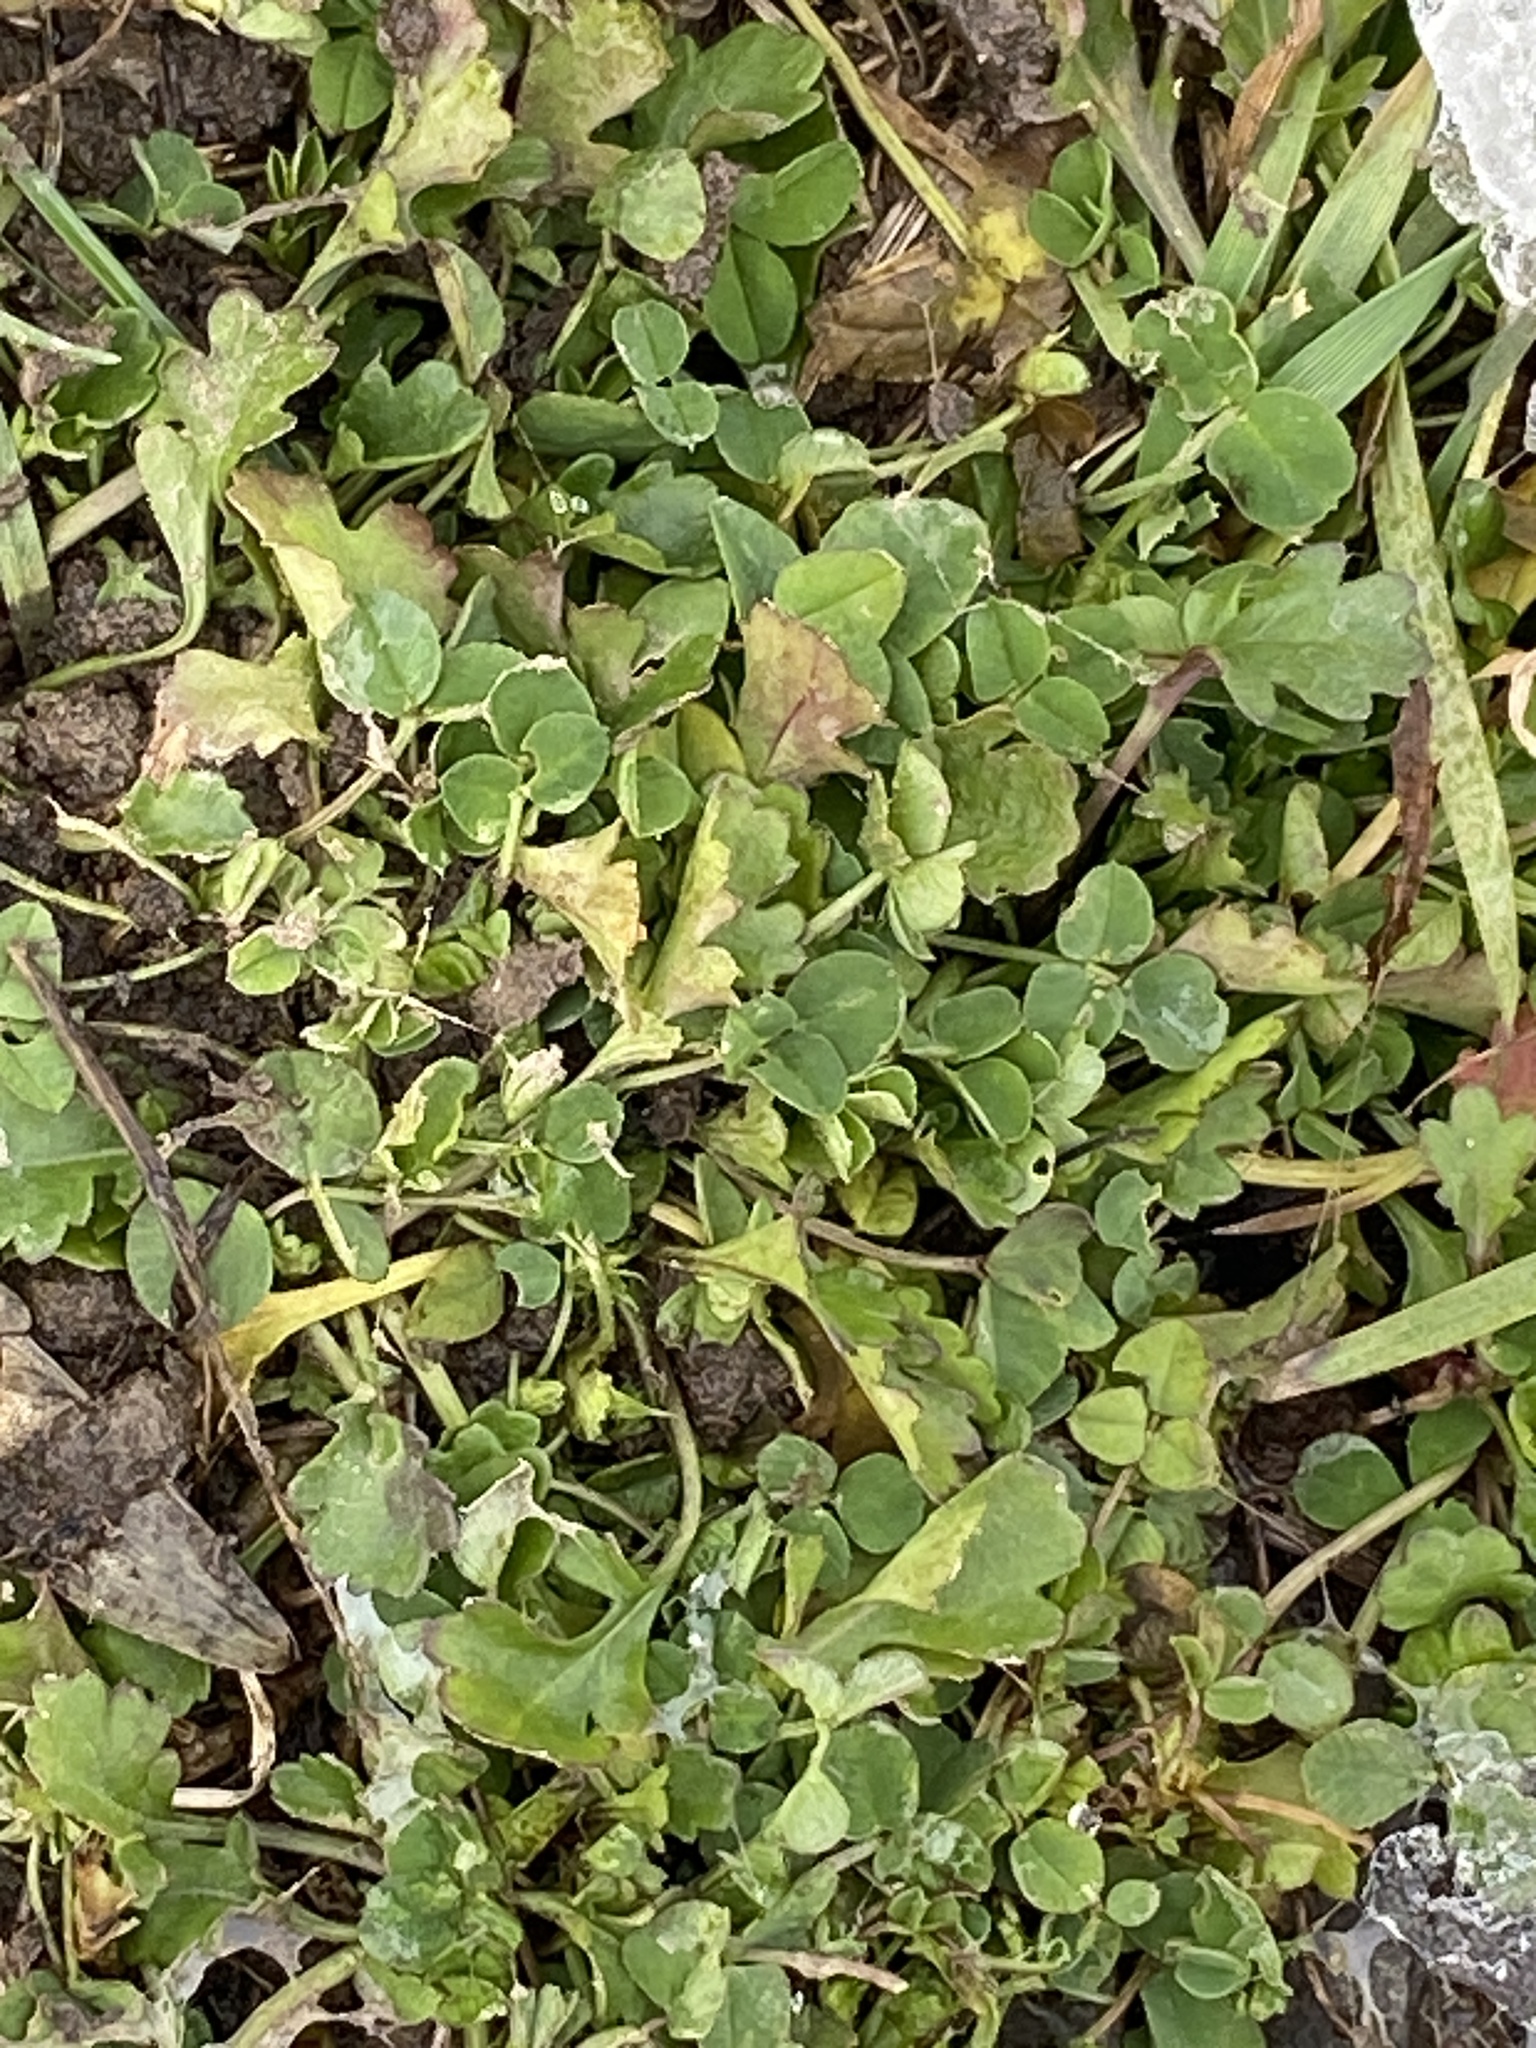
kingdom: Plantae
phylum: Tracheophyta
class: Magnoliopsida
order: Fabales
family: Fabaceae
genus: Medicago
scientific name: Medicago lupulina
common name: Black medick
